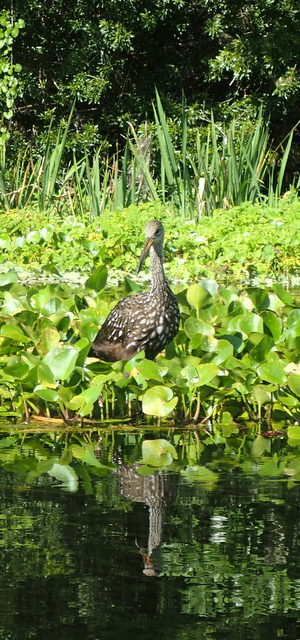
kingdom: Animalia
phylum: Chordata
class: Aves
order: Gruiformes
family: Aramidae
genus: Aramus
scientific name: Aramus guarauna
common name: Limpkin
